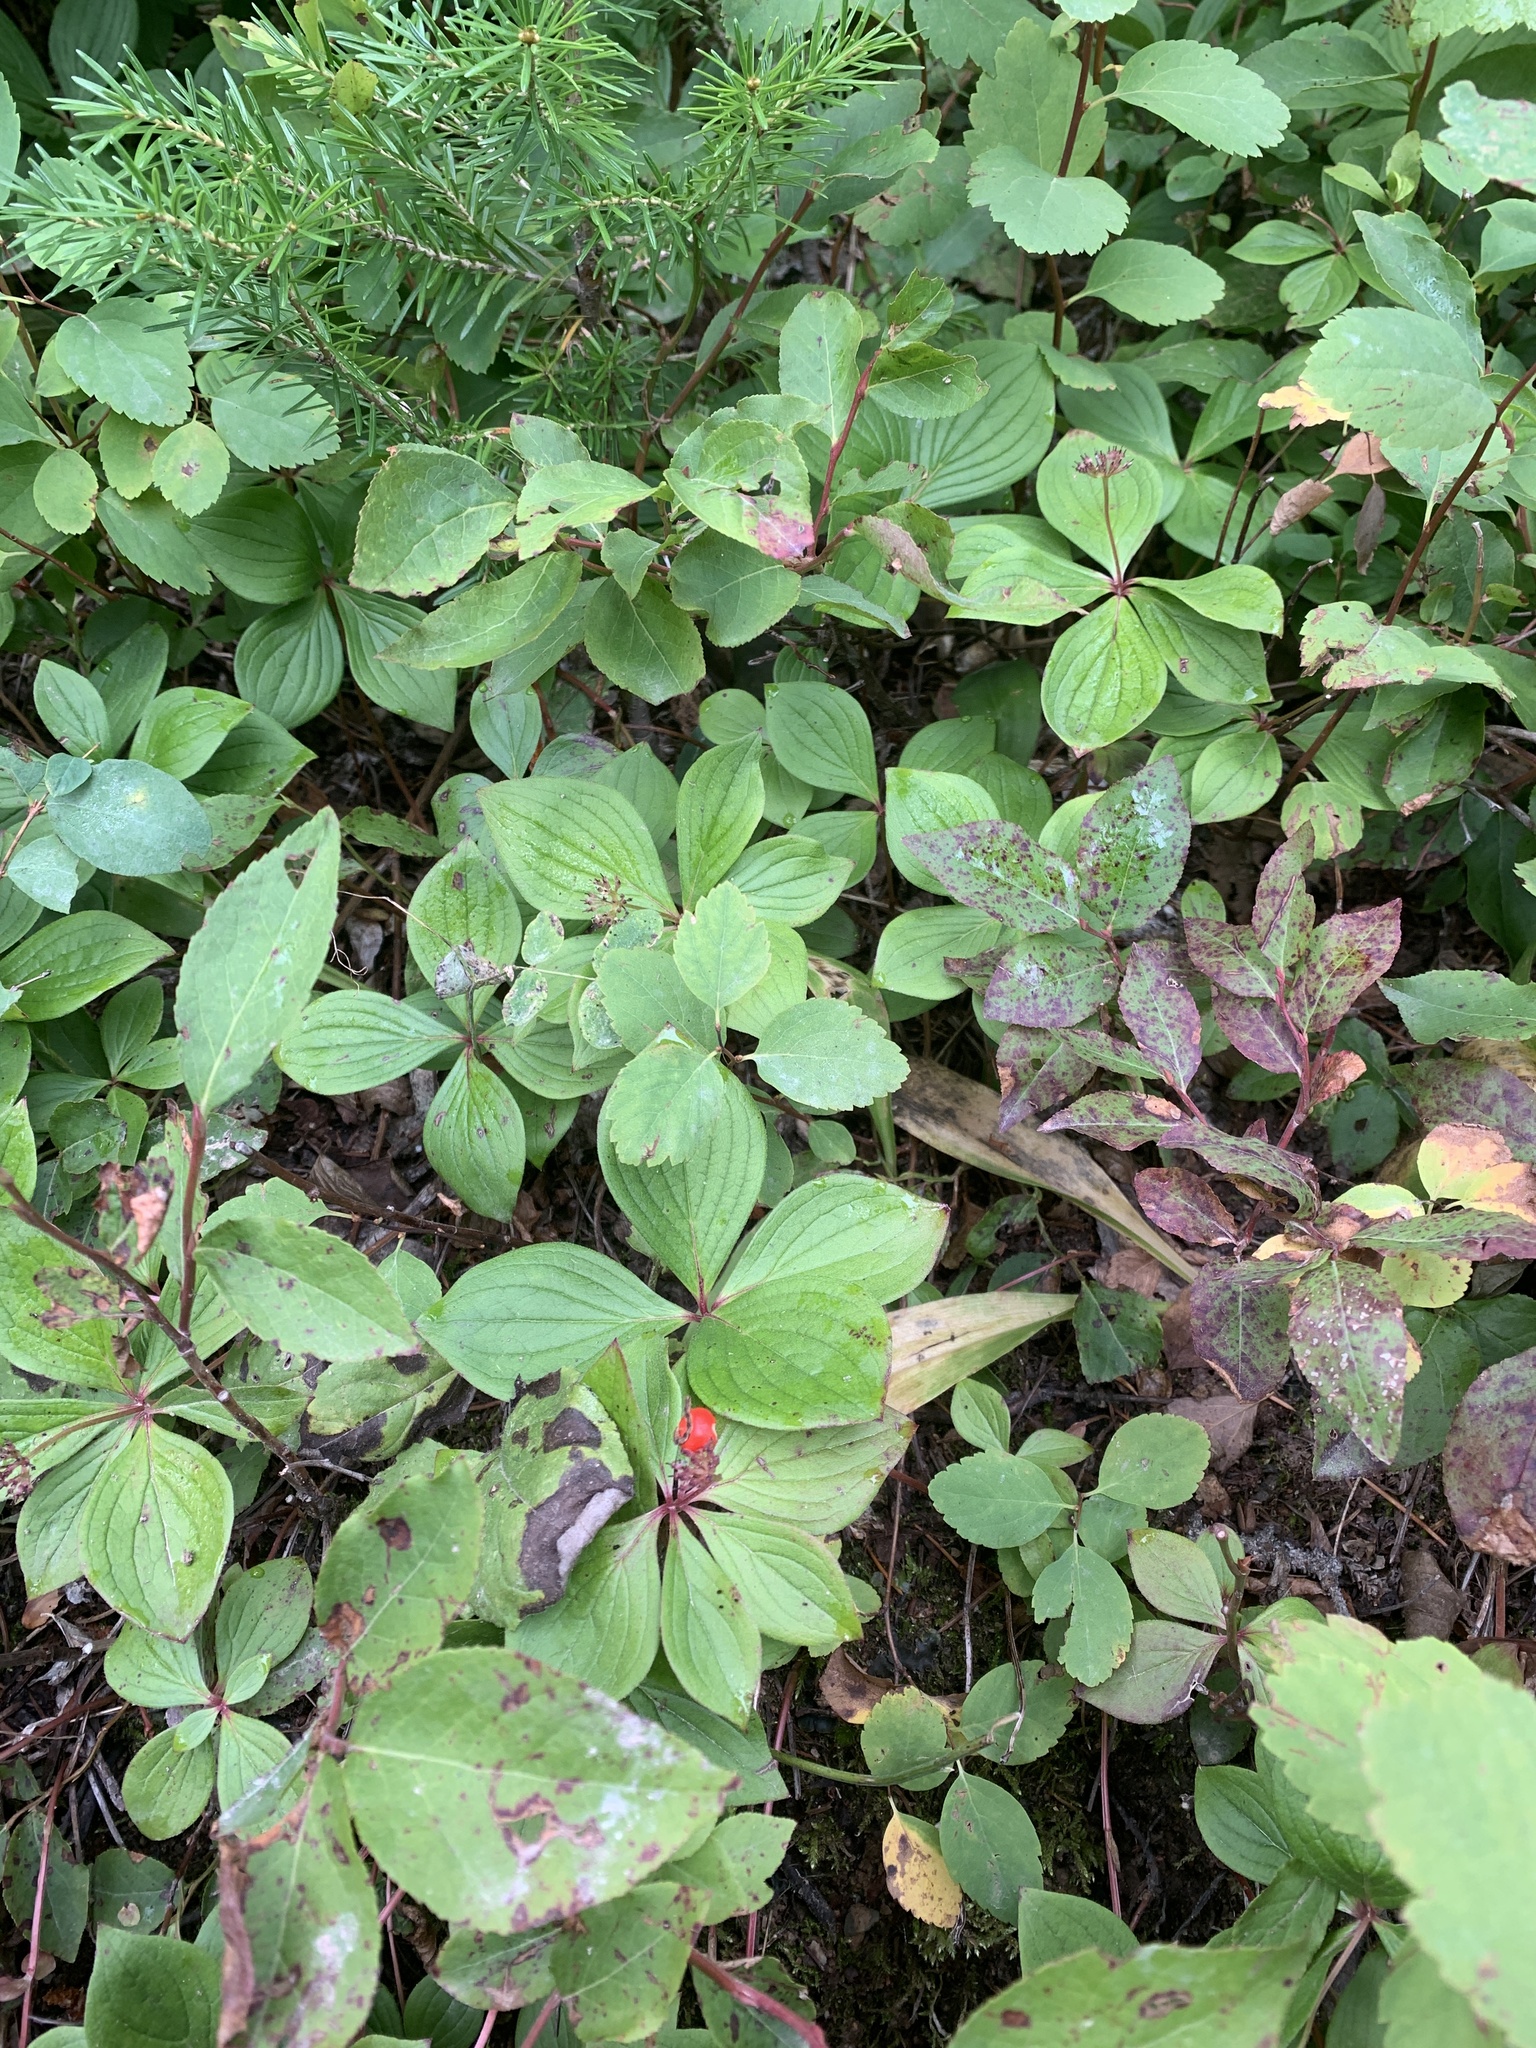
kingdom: Plantae
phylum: Tracheophyta
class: Magnoliopsida
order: Cornales
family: Cornaceae
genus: Cornus
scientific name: Cornus canadensis
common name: Creeping dogwood
